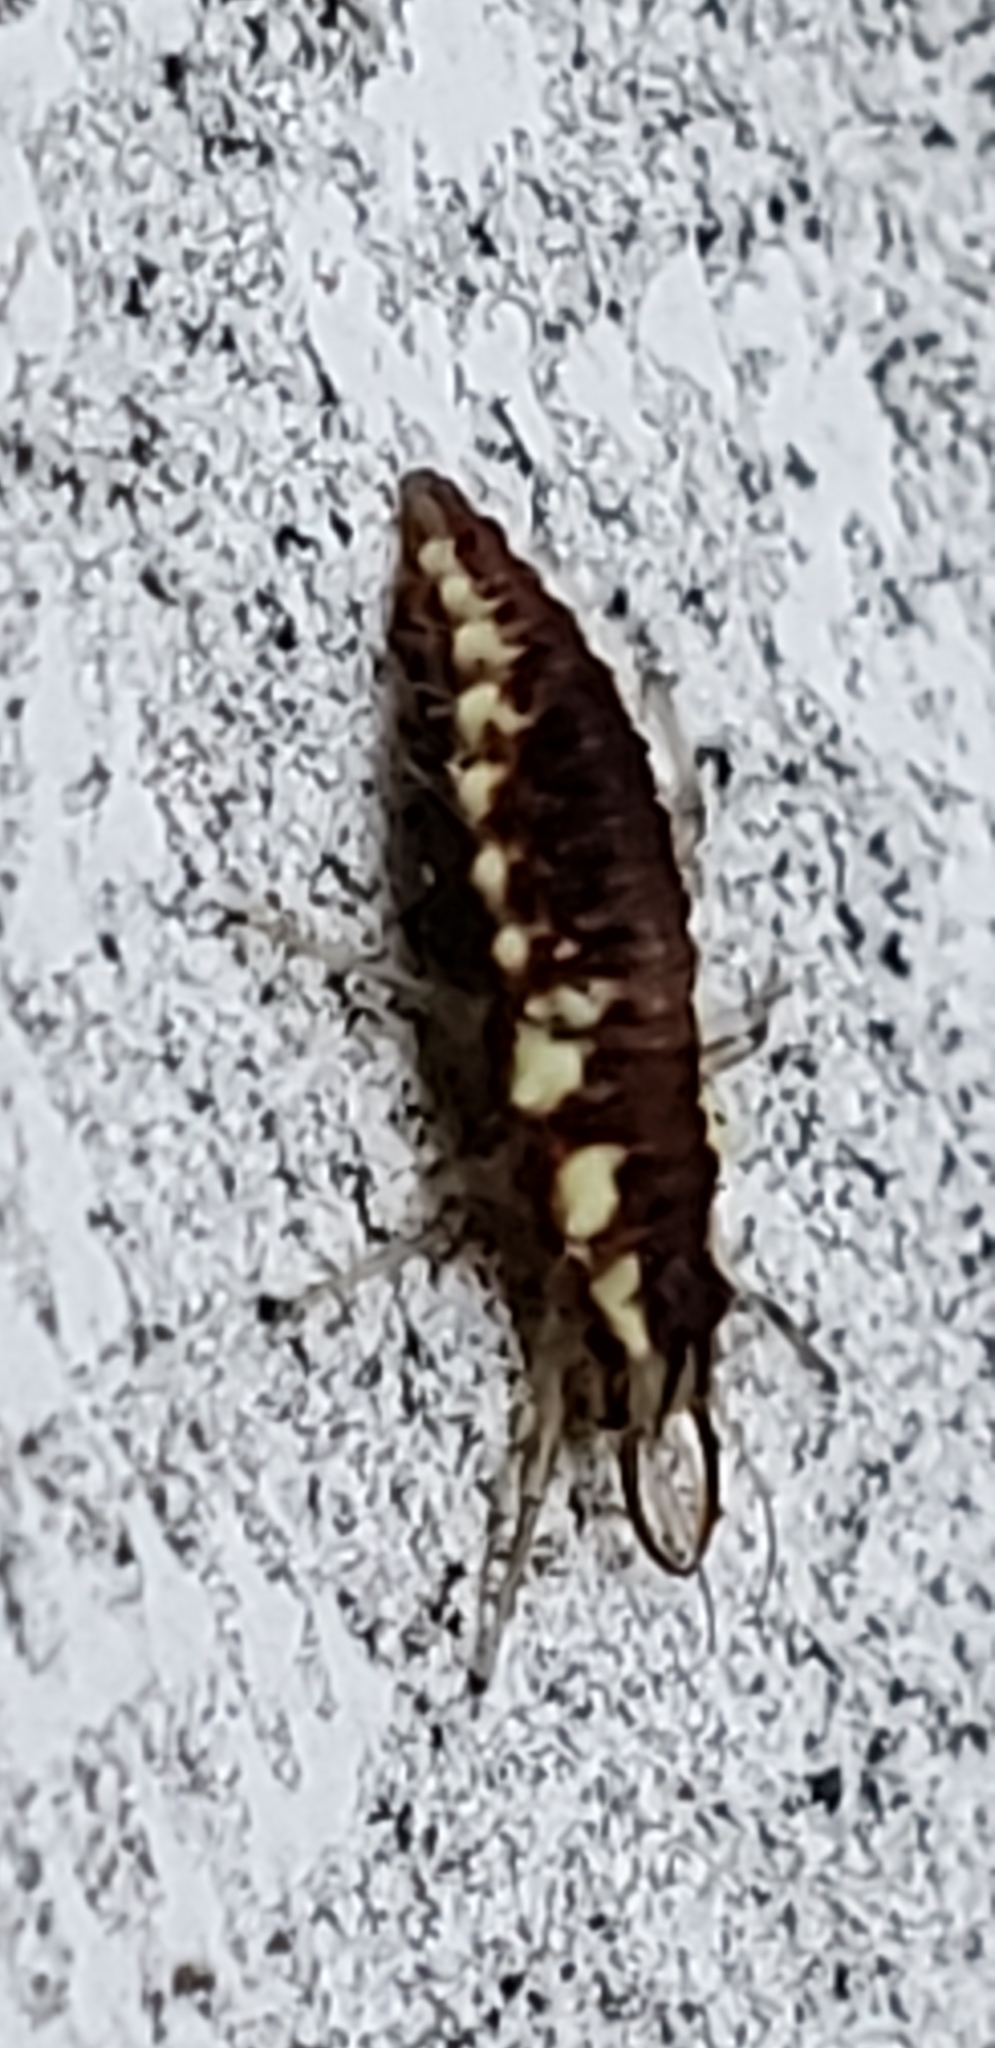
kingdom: Animalia
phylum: Arthropoda
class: Insecta
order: Neuroptera
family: Chrysopidae
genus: Chrysoperla
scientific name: Chrysoperla rufilabris
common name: Red-lipped green lacewing
